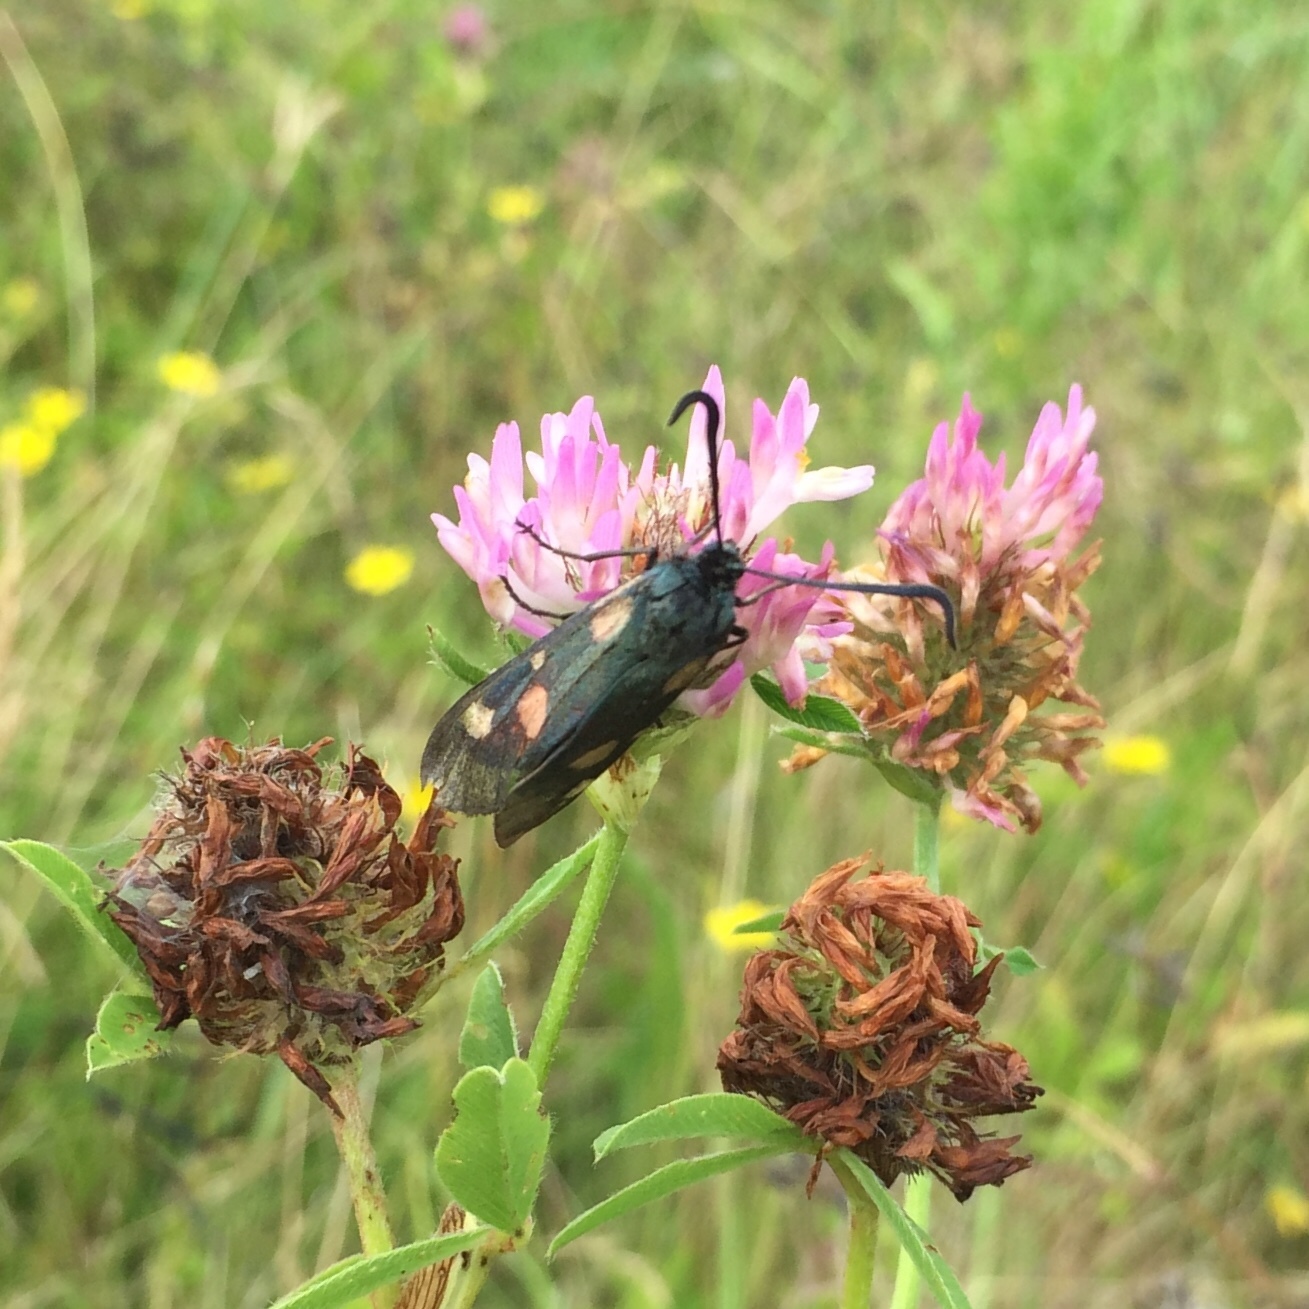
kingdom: Animalia
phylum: Arthropoda
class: Insecta
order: Lepidoptera
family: Zygaenidae
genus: Zygaena
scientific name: Zygaena lonicerae
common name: Narrow-bordered five-spot burnet
